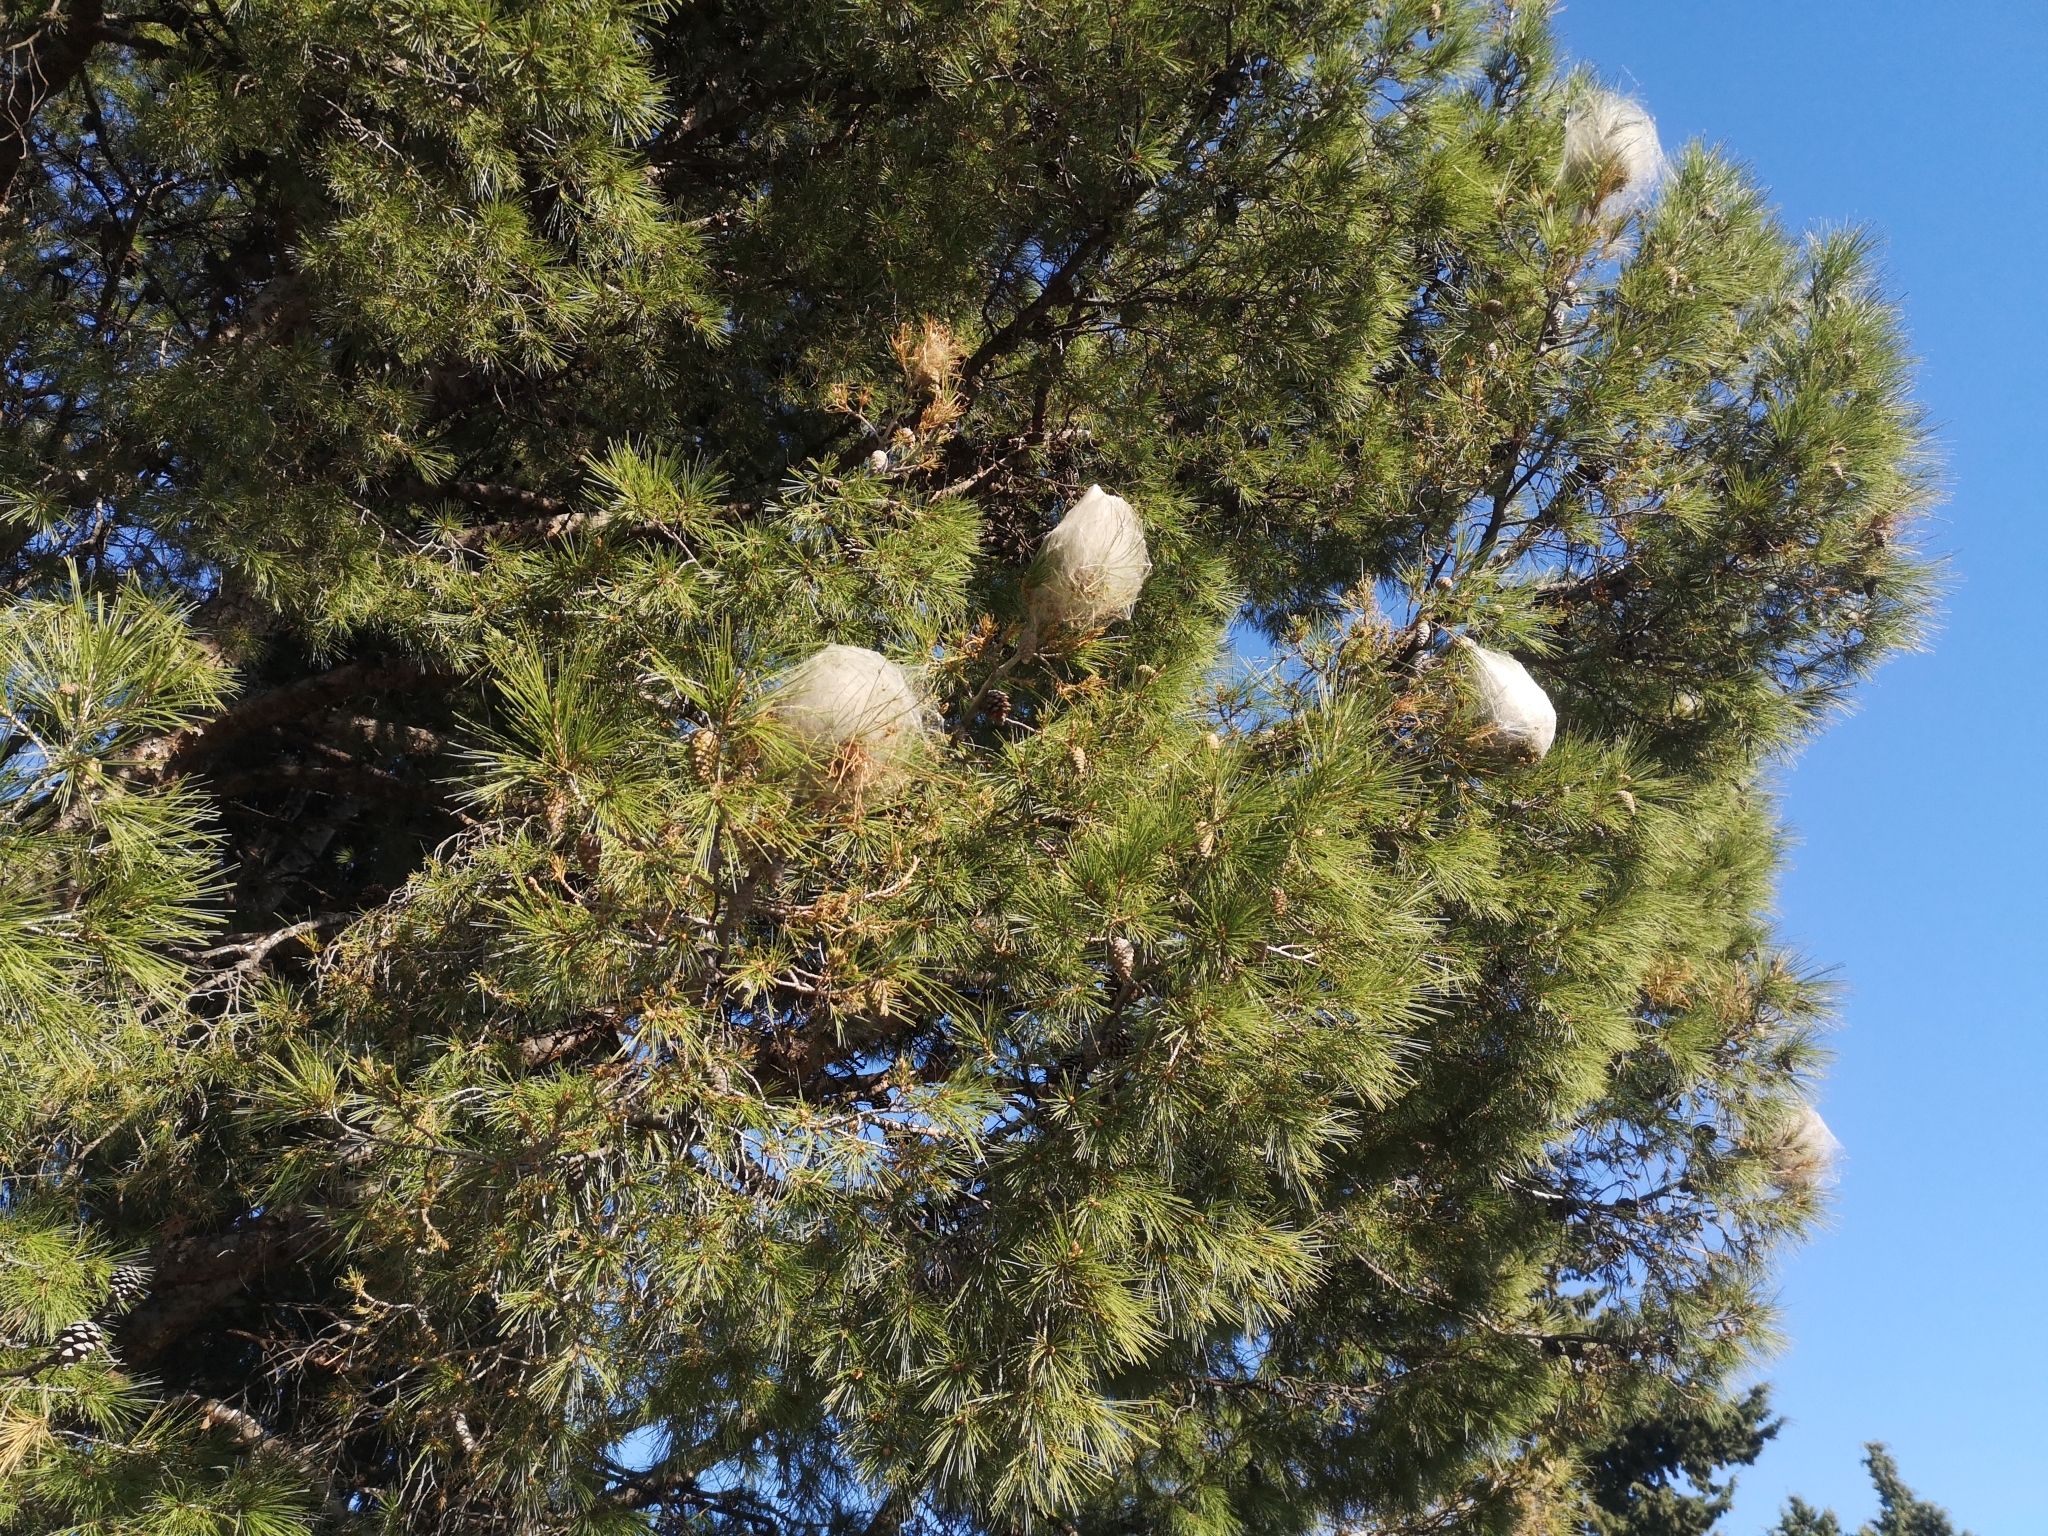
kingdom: Animalia
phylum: Arthropoda
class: Insecta
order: Lepidoptera
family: Notodontidae
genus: Thaumetopoea
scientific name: Thaumetopoea pityocampa
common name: Pine processionary
